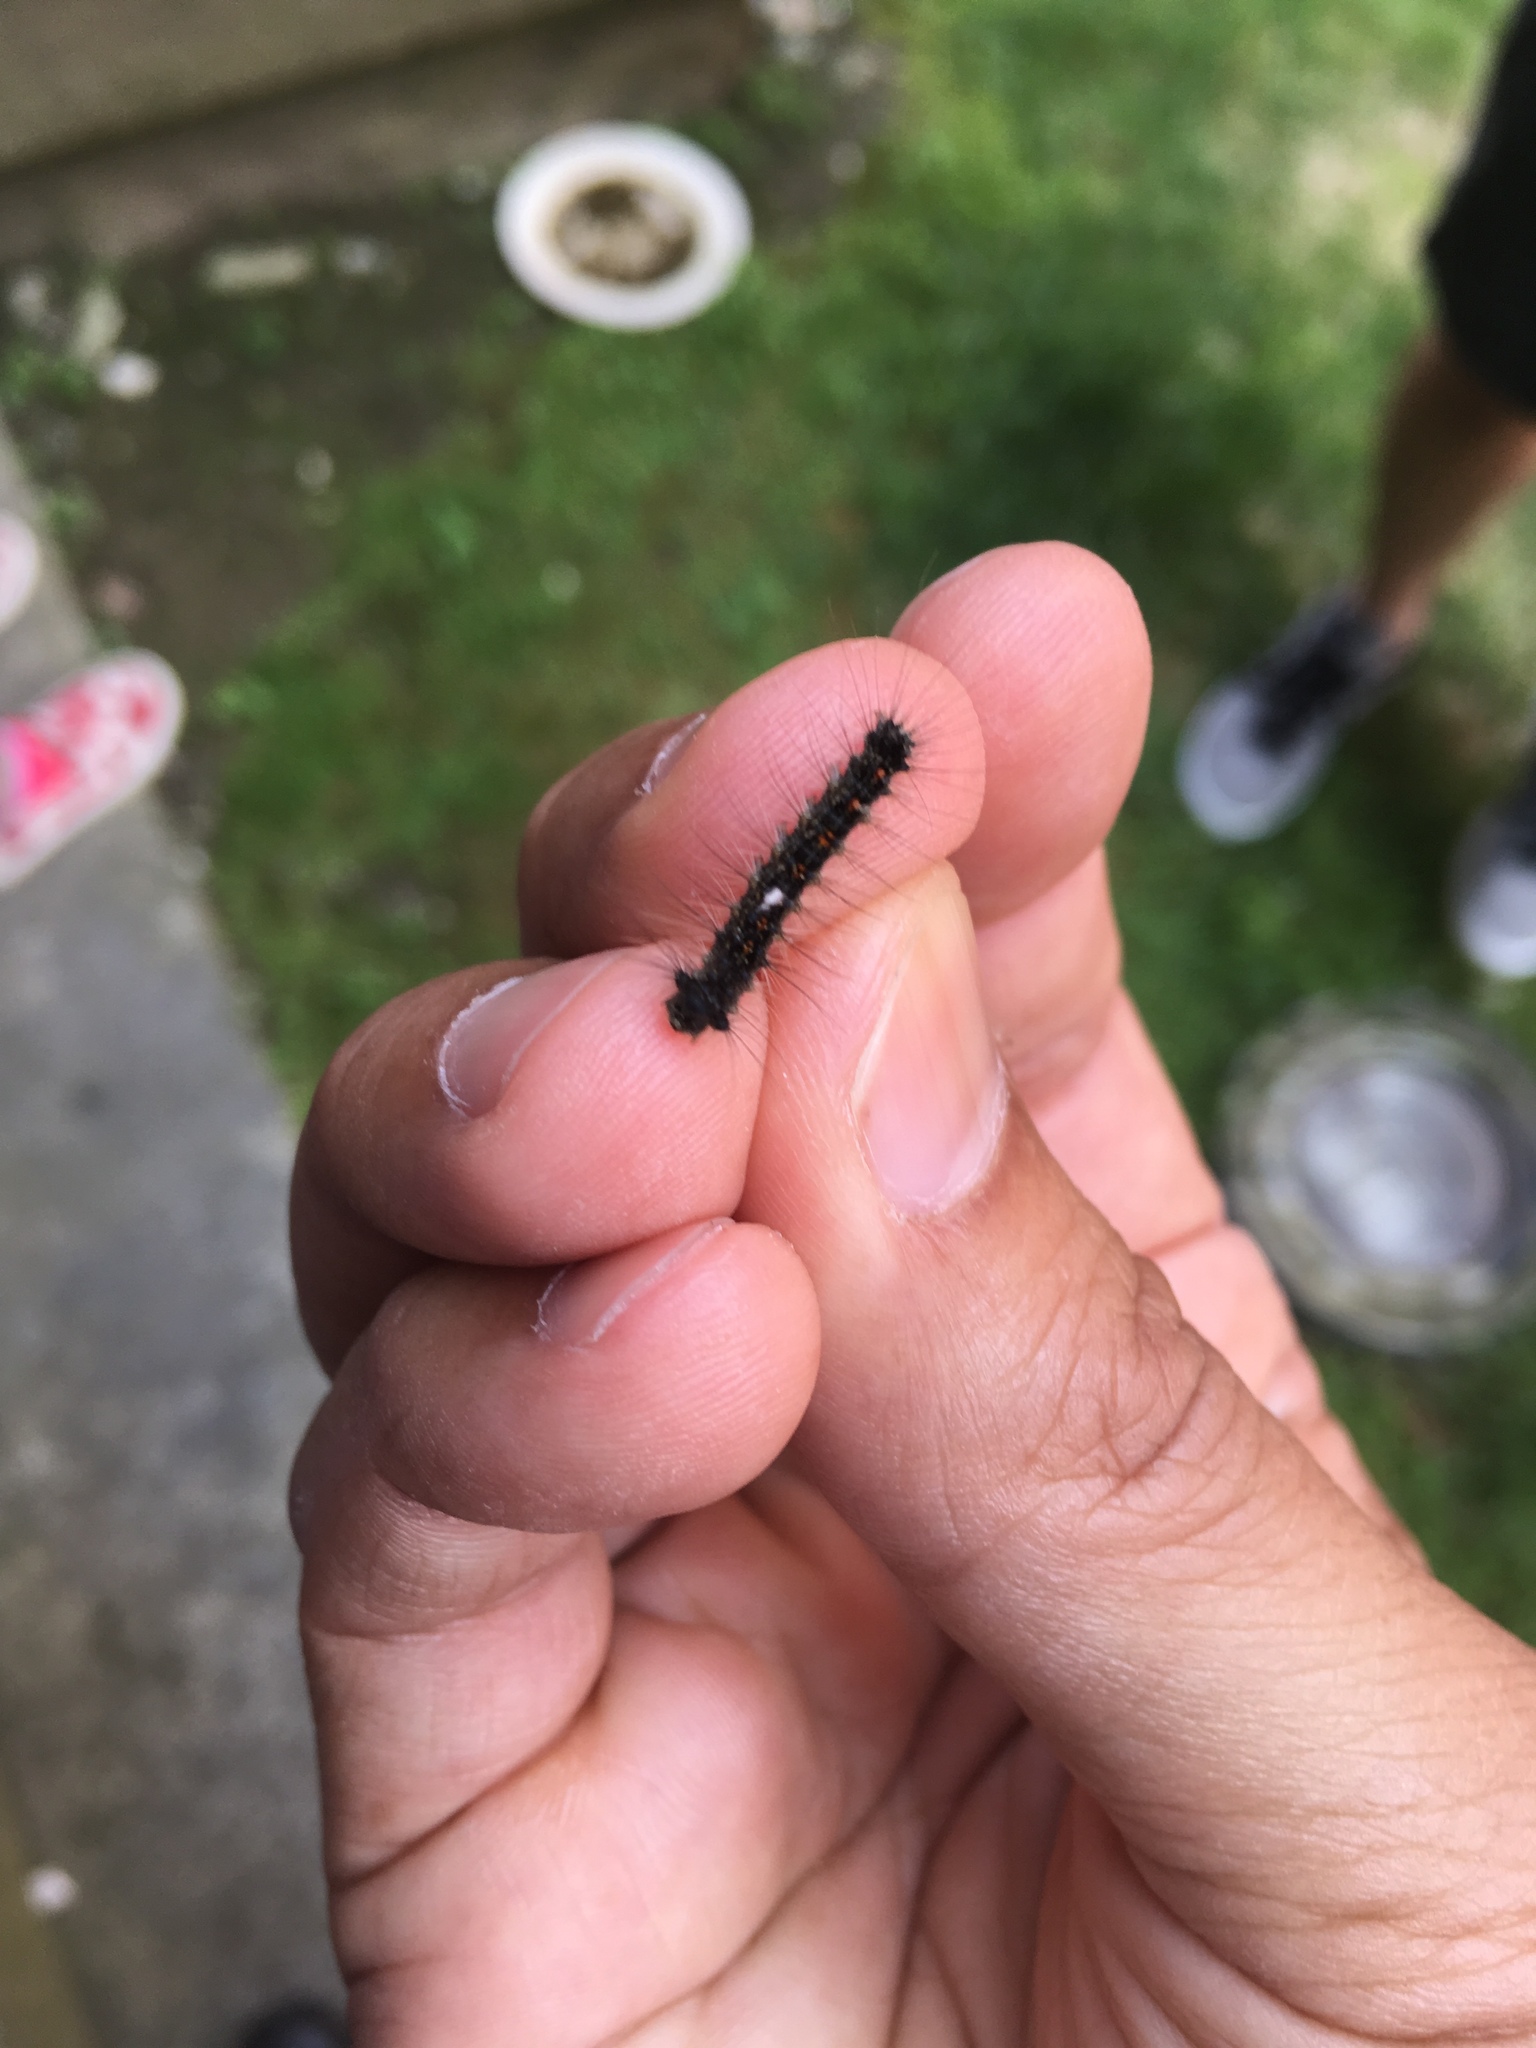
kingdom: Animalia
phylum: Arthropoda
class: Insecta
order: Lepidoptera
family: Erebidae
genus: Lymantria
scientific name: Lymantria dispar
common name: Gypsy moth
